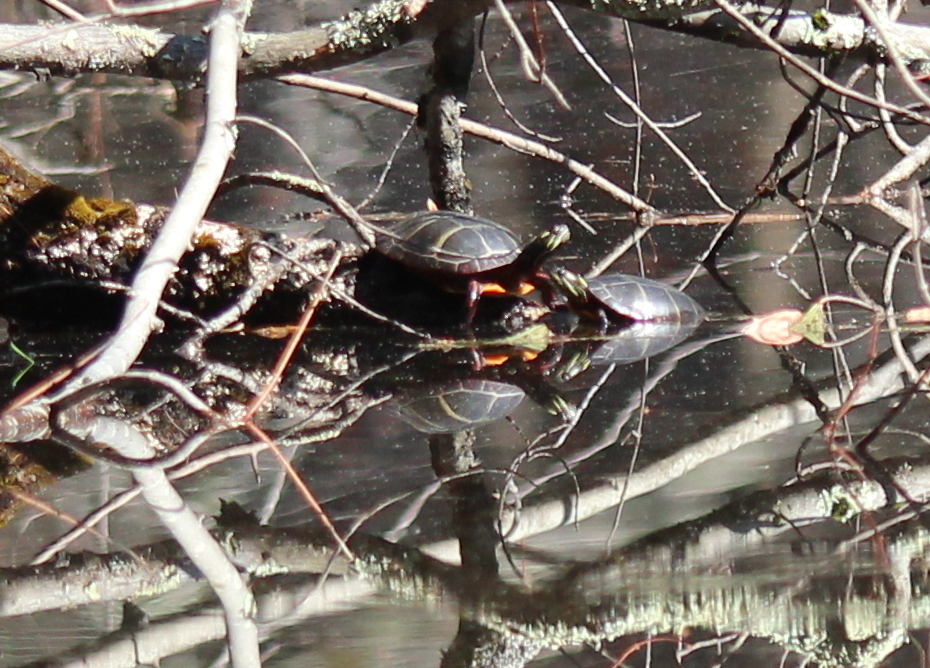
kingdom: Animalia
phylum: Chordata
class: Testudines
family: Emydidae
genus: Chrysemys
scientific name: Chrysemys picta
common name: Painted turtle
